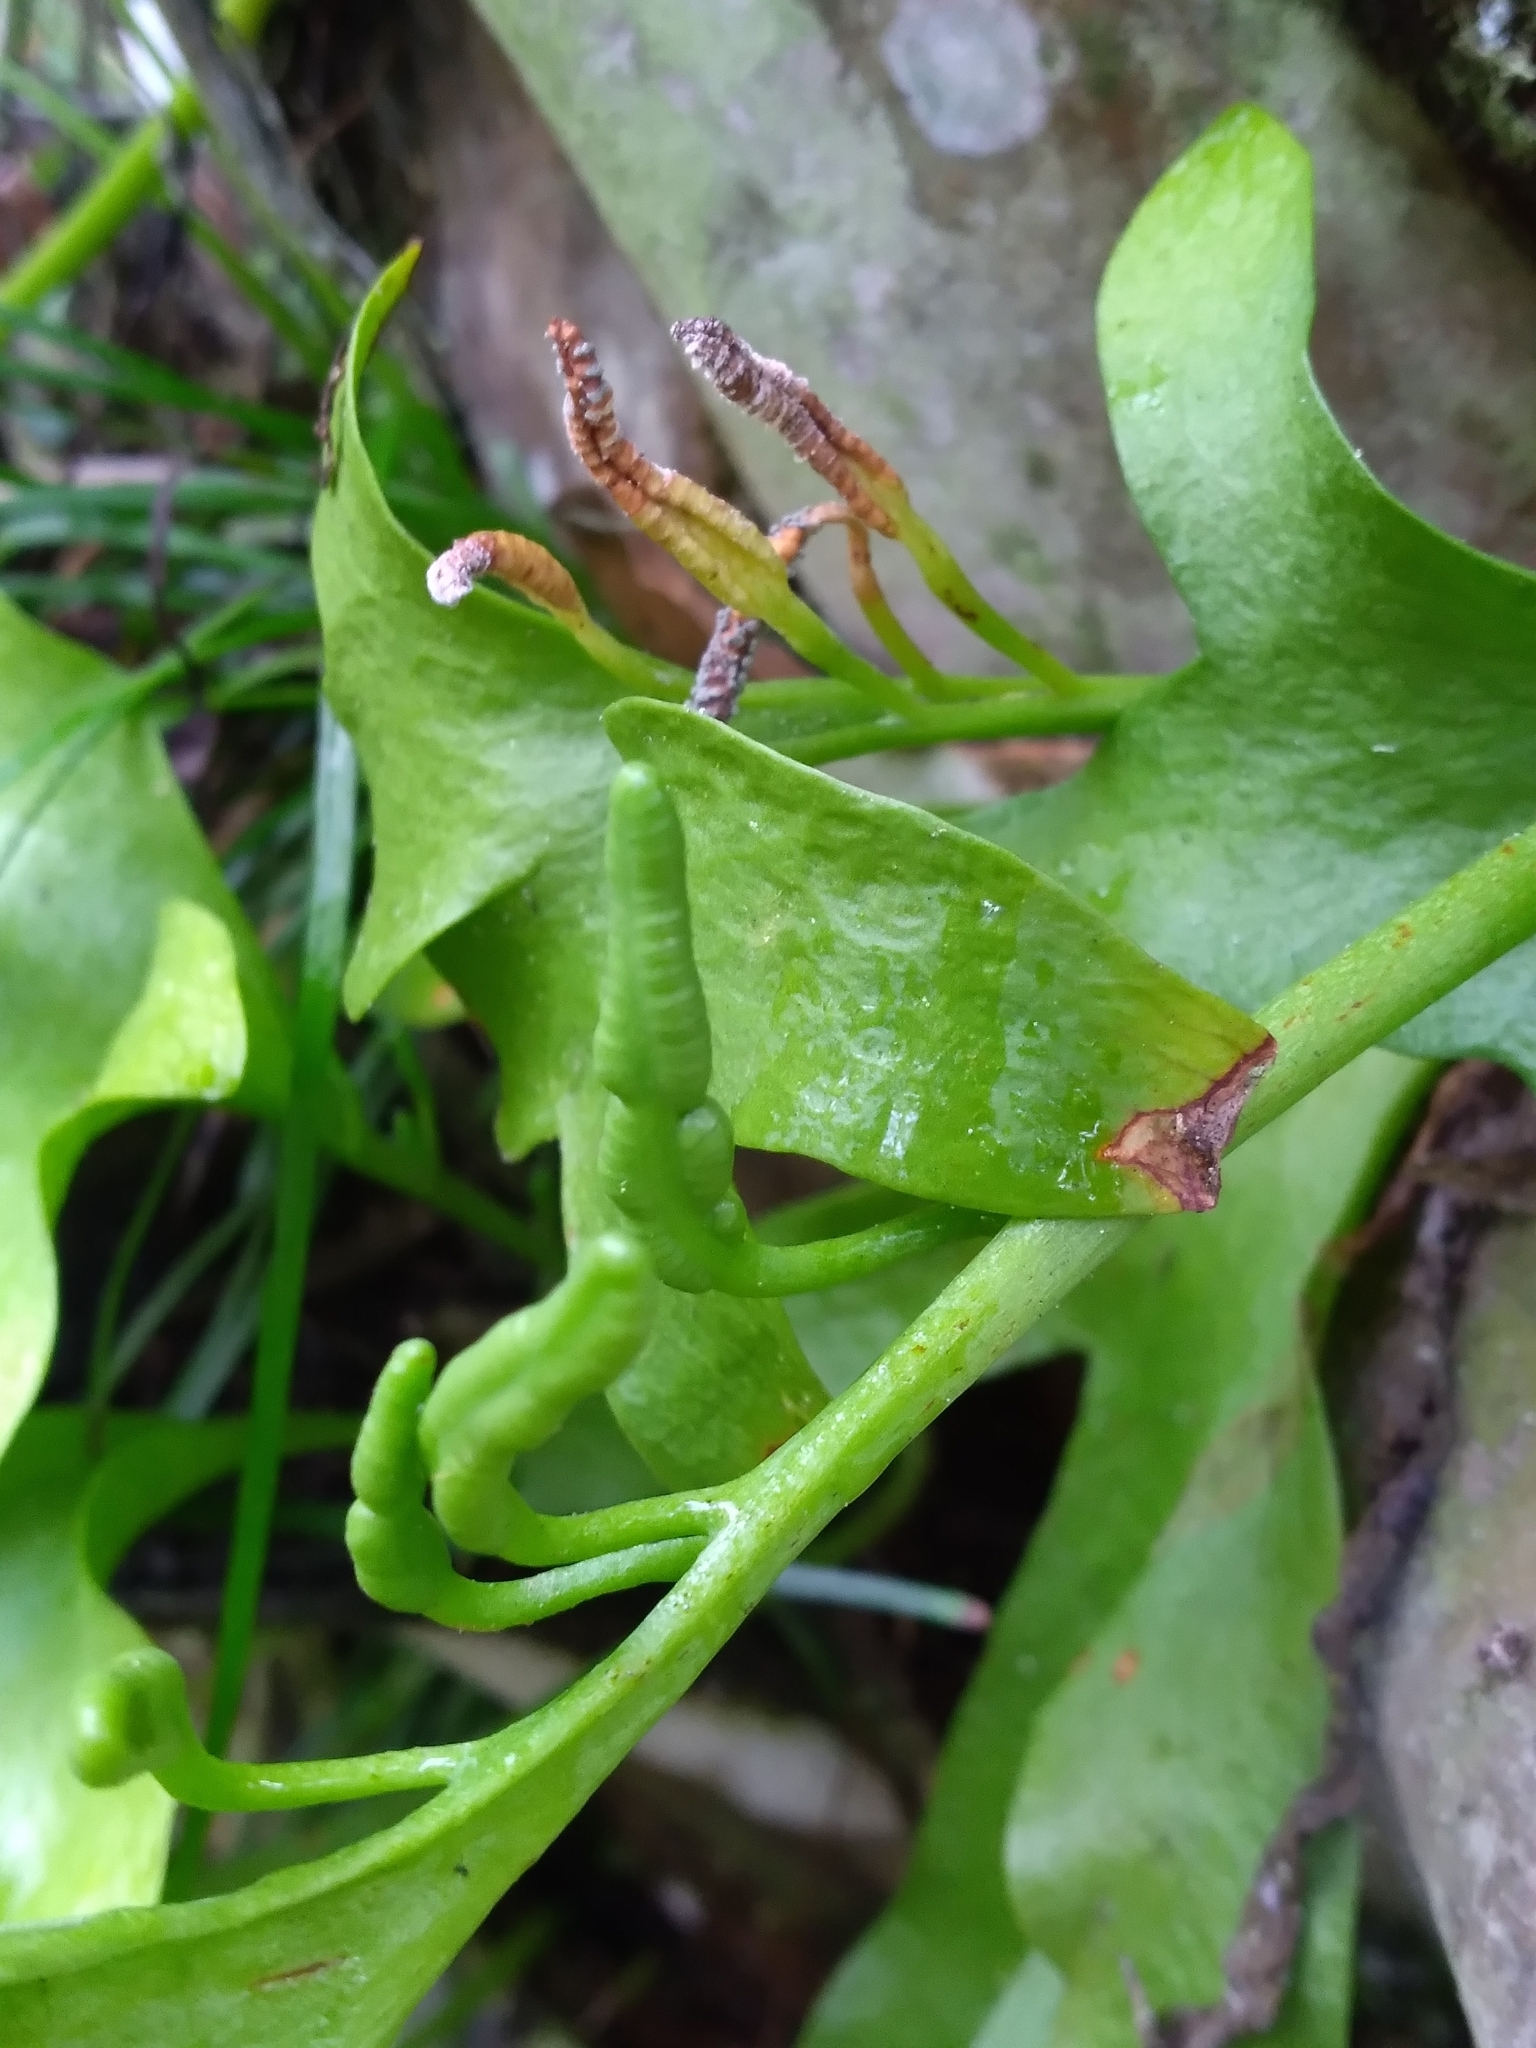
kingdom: Plantae
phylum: Tracheophyta
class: Polypodiopsida
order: Ophioglossales
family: Ophioglossaceae
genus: Cheiroglossa
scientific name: Cheiroglossa palmata
